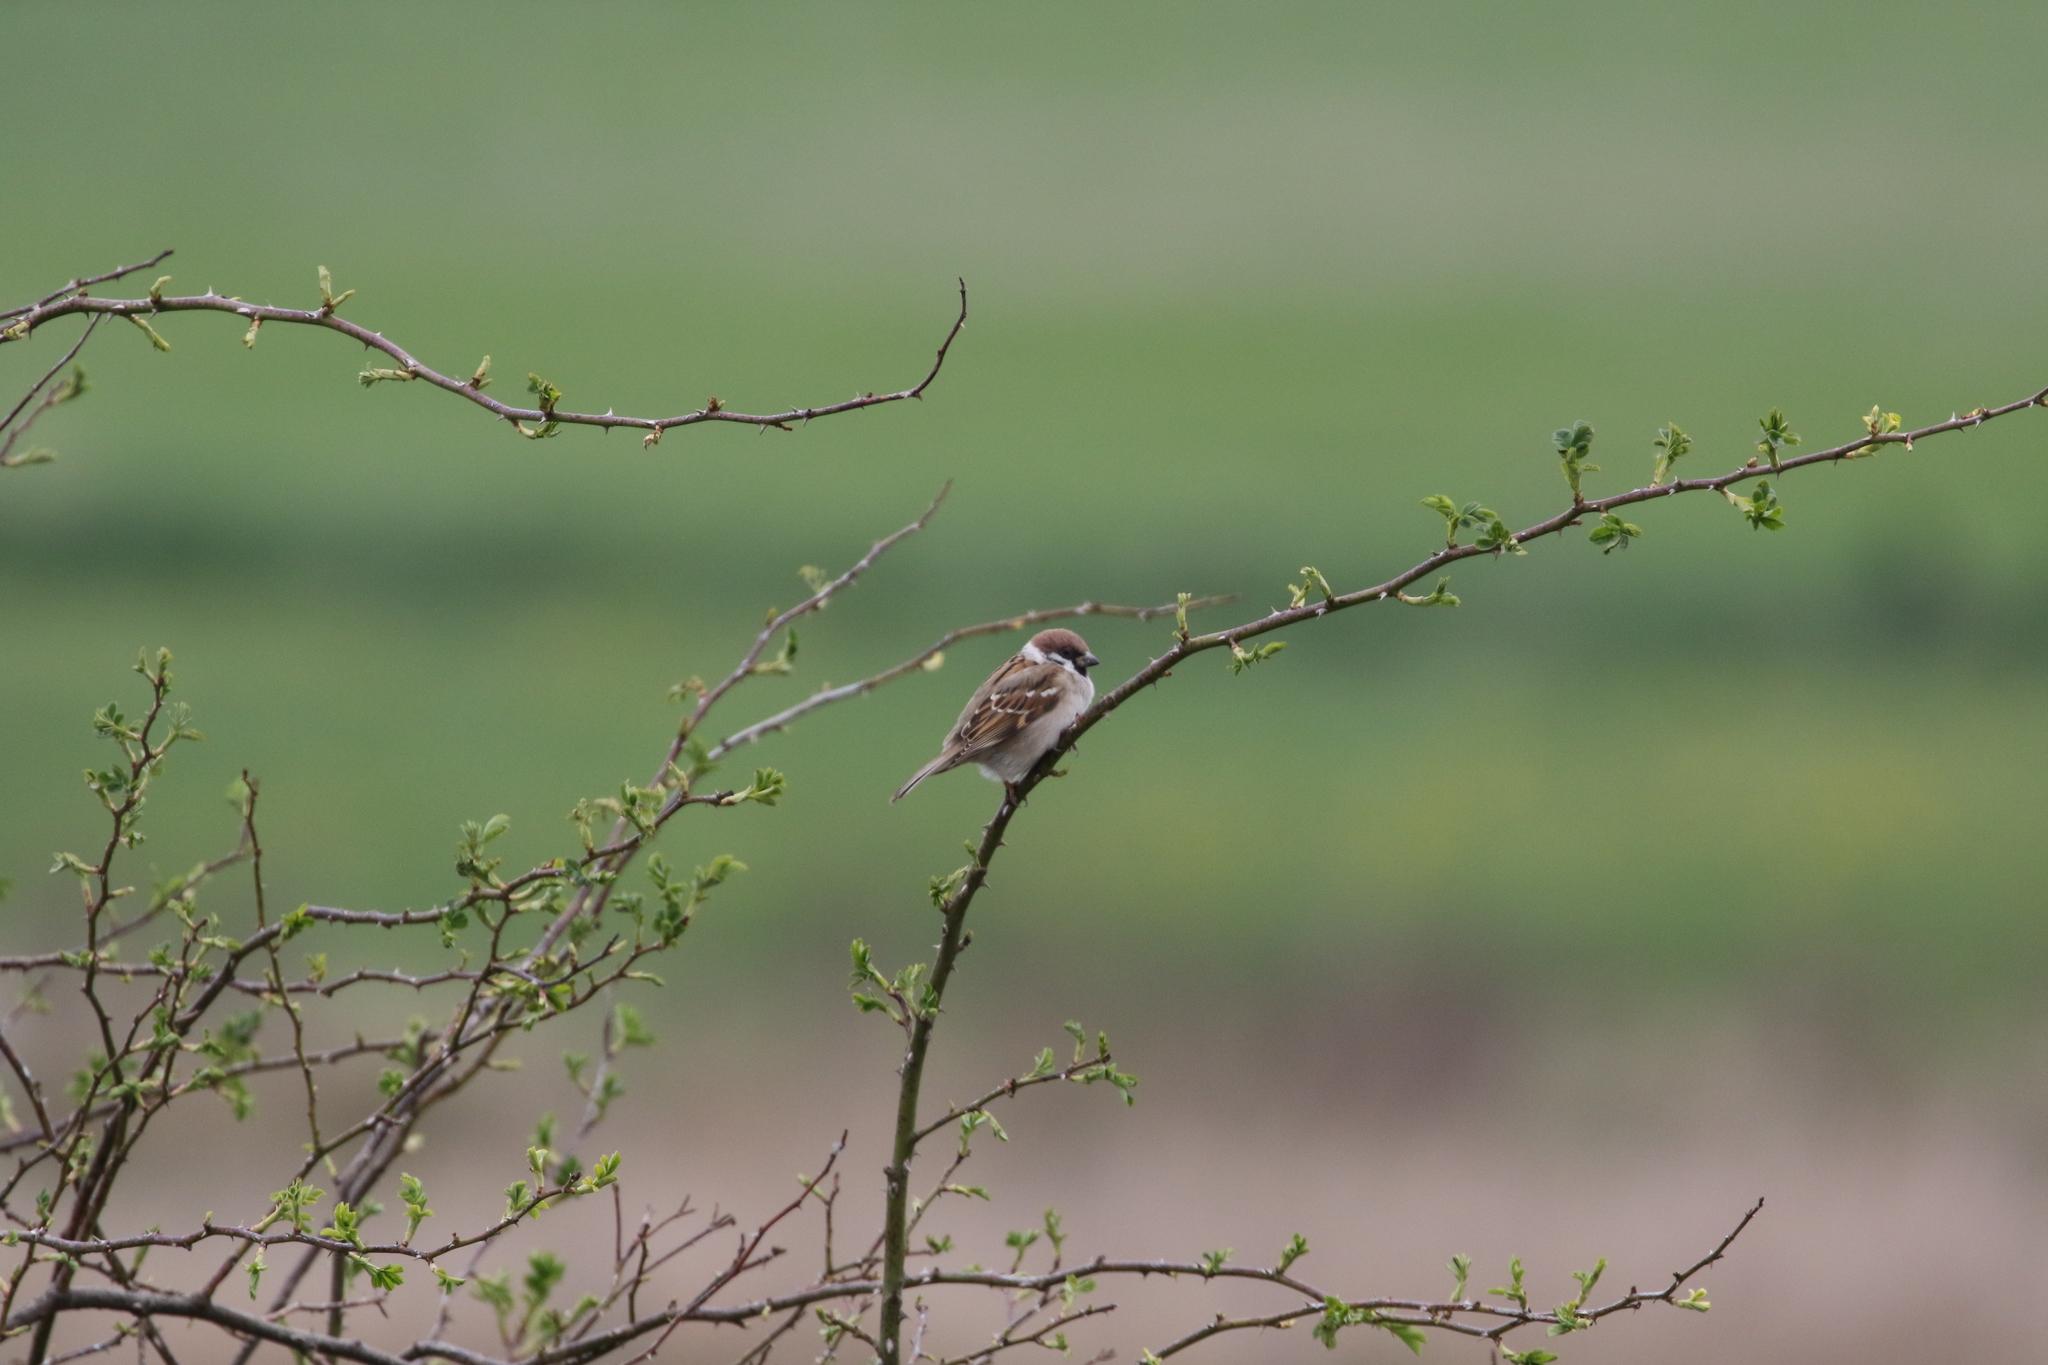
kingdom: Animalia
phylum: Chordata
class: Aves
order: Passeriformes
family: Passeridae
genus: Passer
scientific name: Passer montanus
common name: Eurasian tree sparrow
